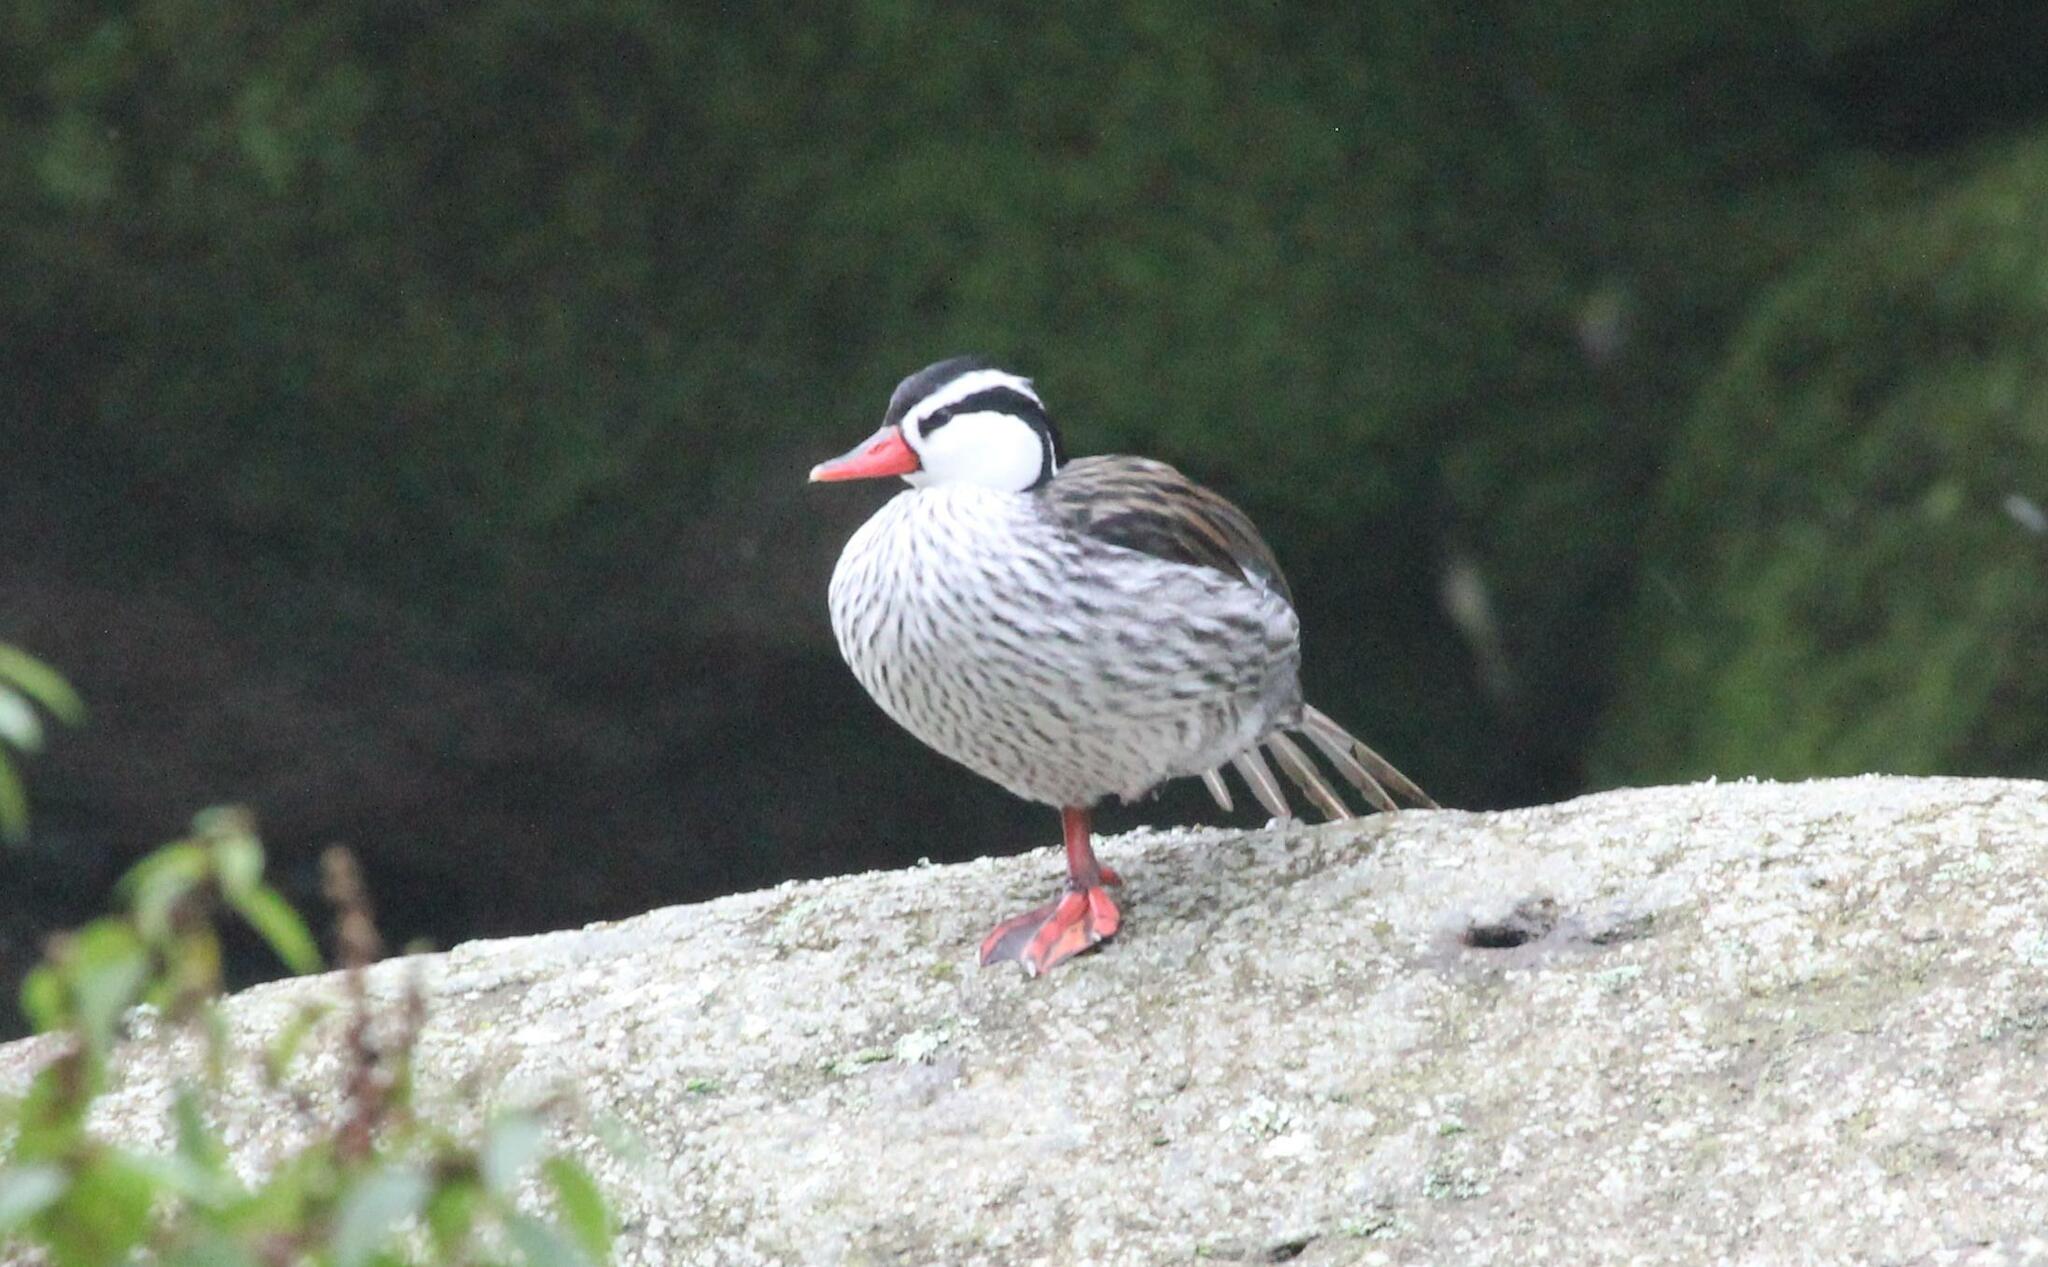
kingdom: Animalia
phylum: Chordata
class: Aves
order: Anseriformes
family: Anatidae
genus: Merganetta
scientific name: Merganetta armata
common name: Torrent duck
